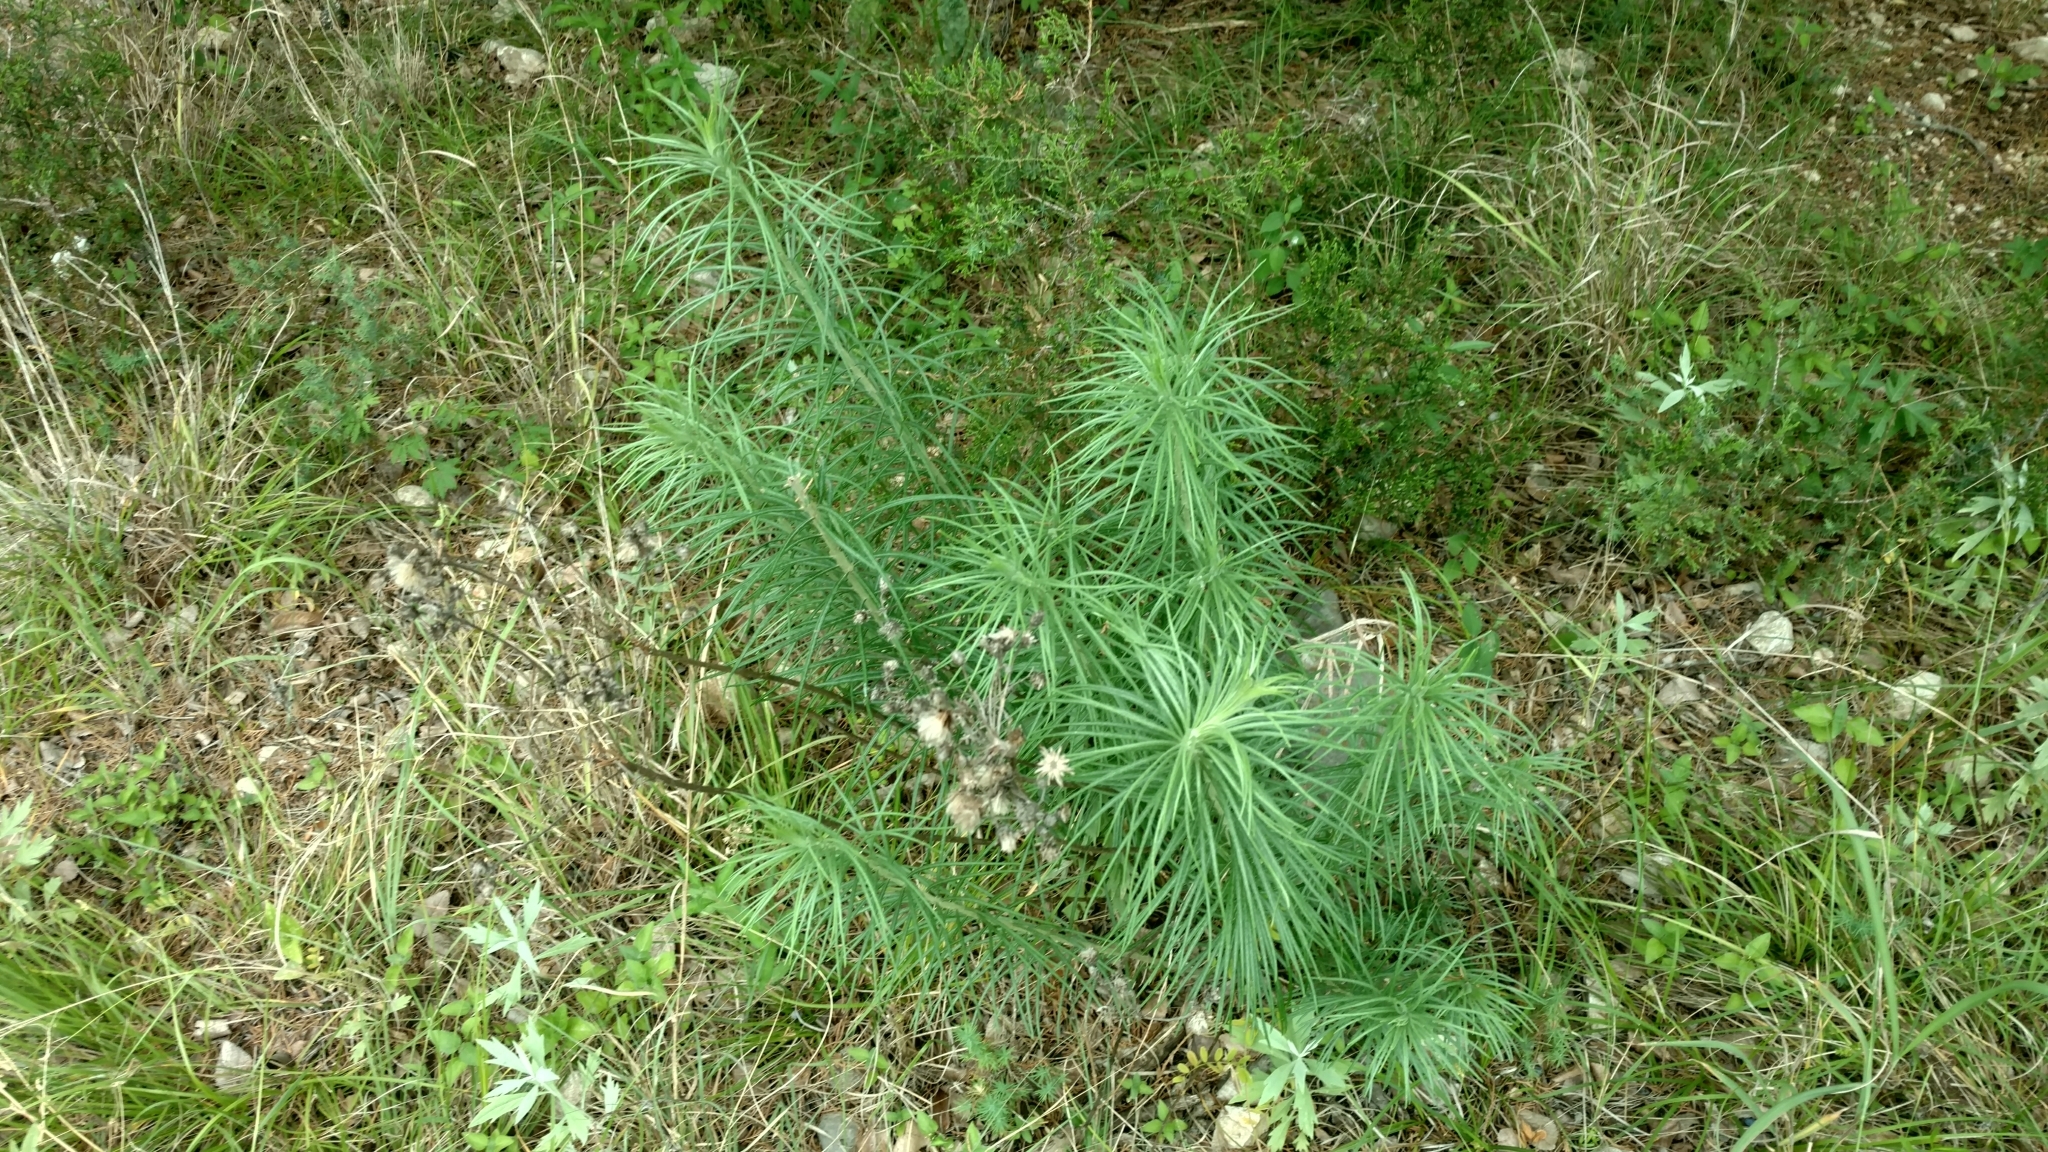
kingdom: Plantae
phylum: Tracheophyta
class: Magnoliopsida
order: Asterales
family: Asteraceae
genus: Vernonia
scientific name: Vernonia lindheimeri
